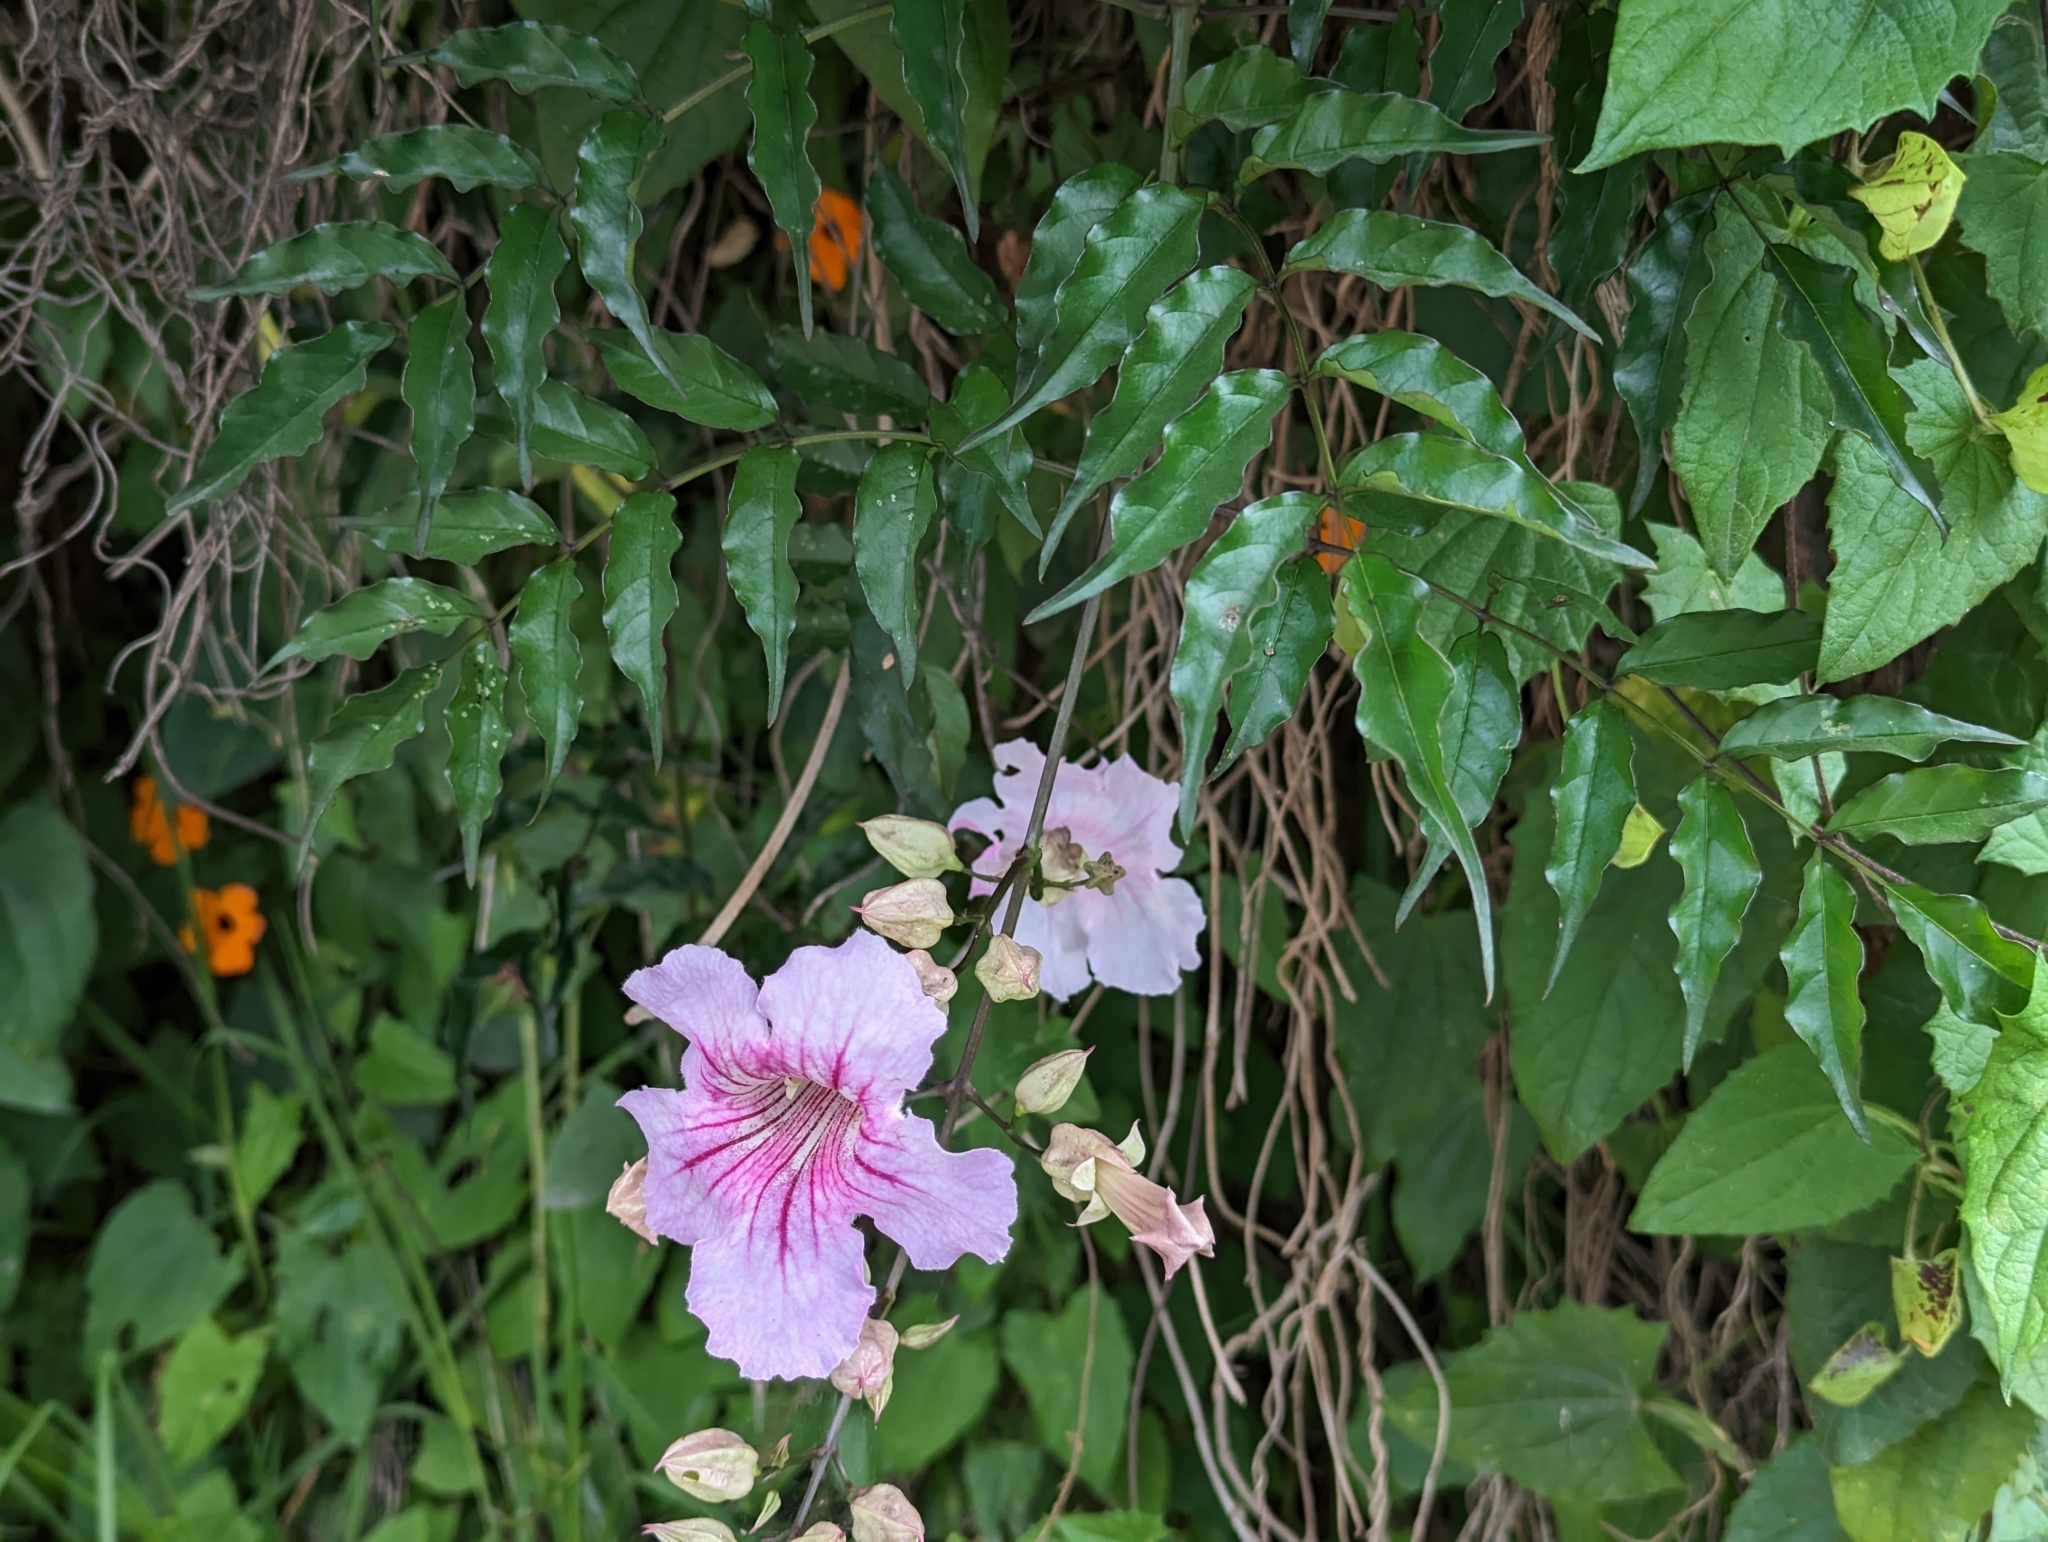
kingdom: Plantae
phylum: Tracheophyta
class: Magnoliopsida
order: Lamiales
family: Bignoniaceae
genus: Podranea
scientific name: Podranea ricasoliana
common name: Zimbabwe creeper
